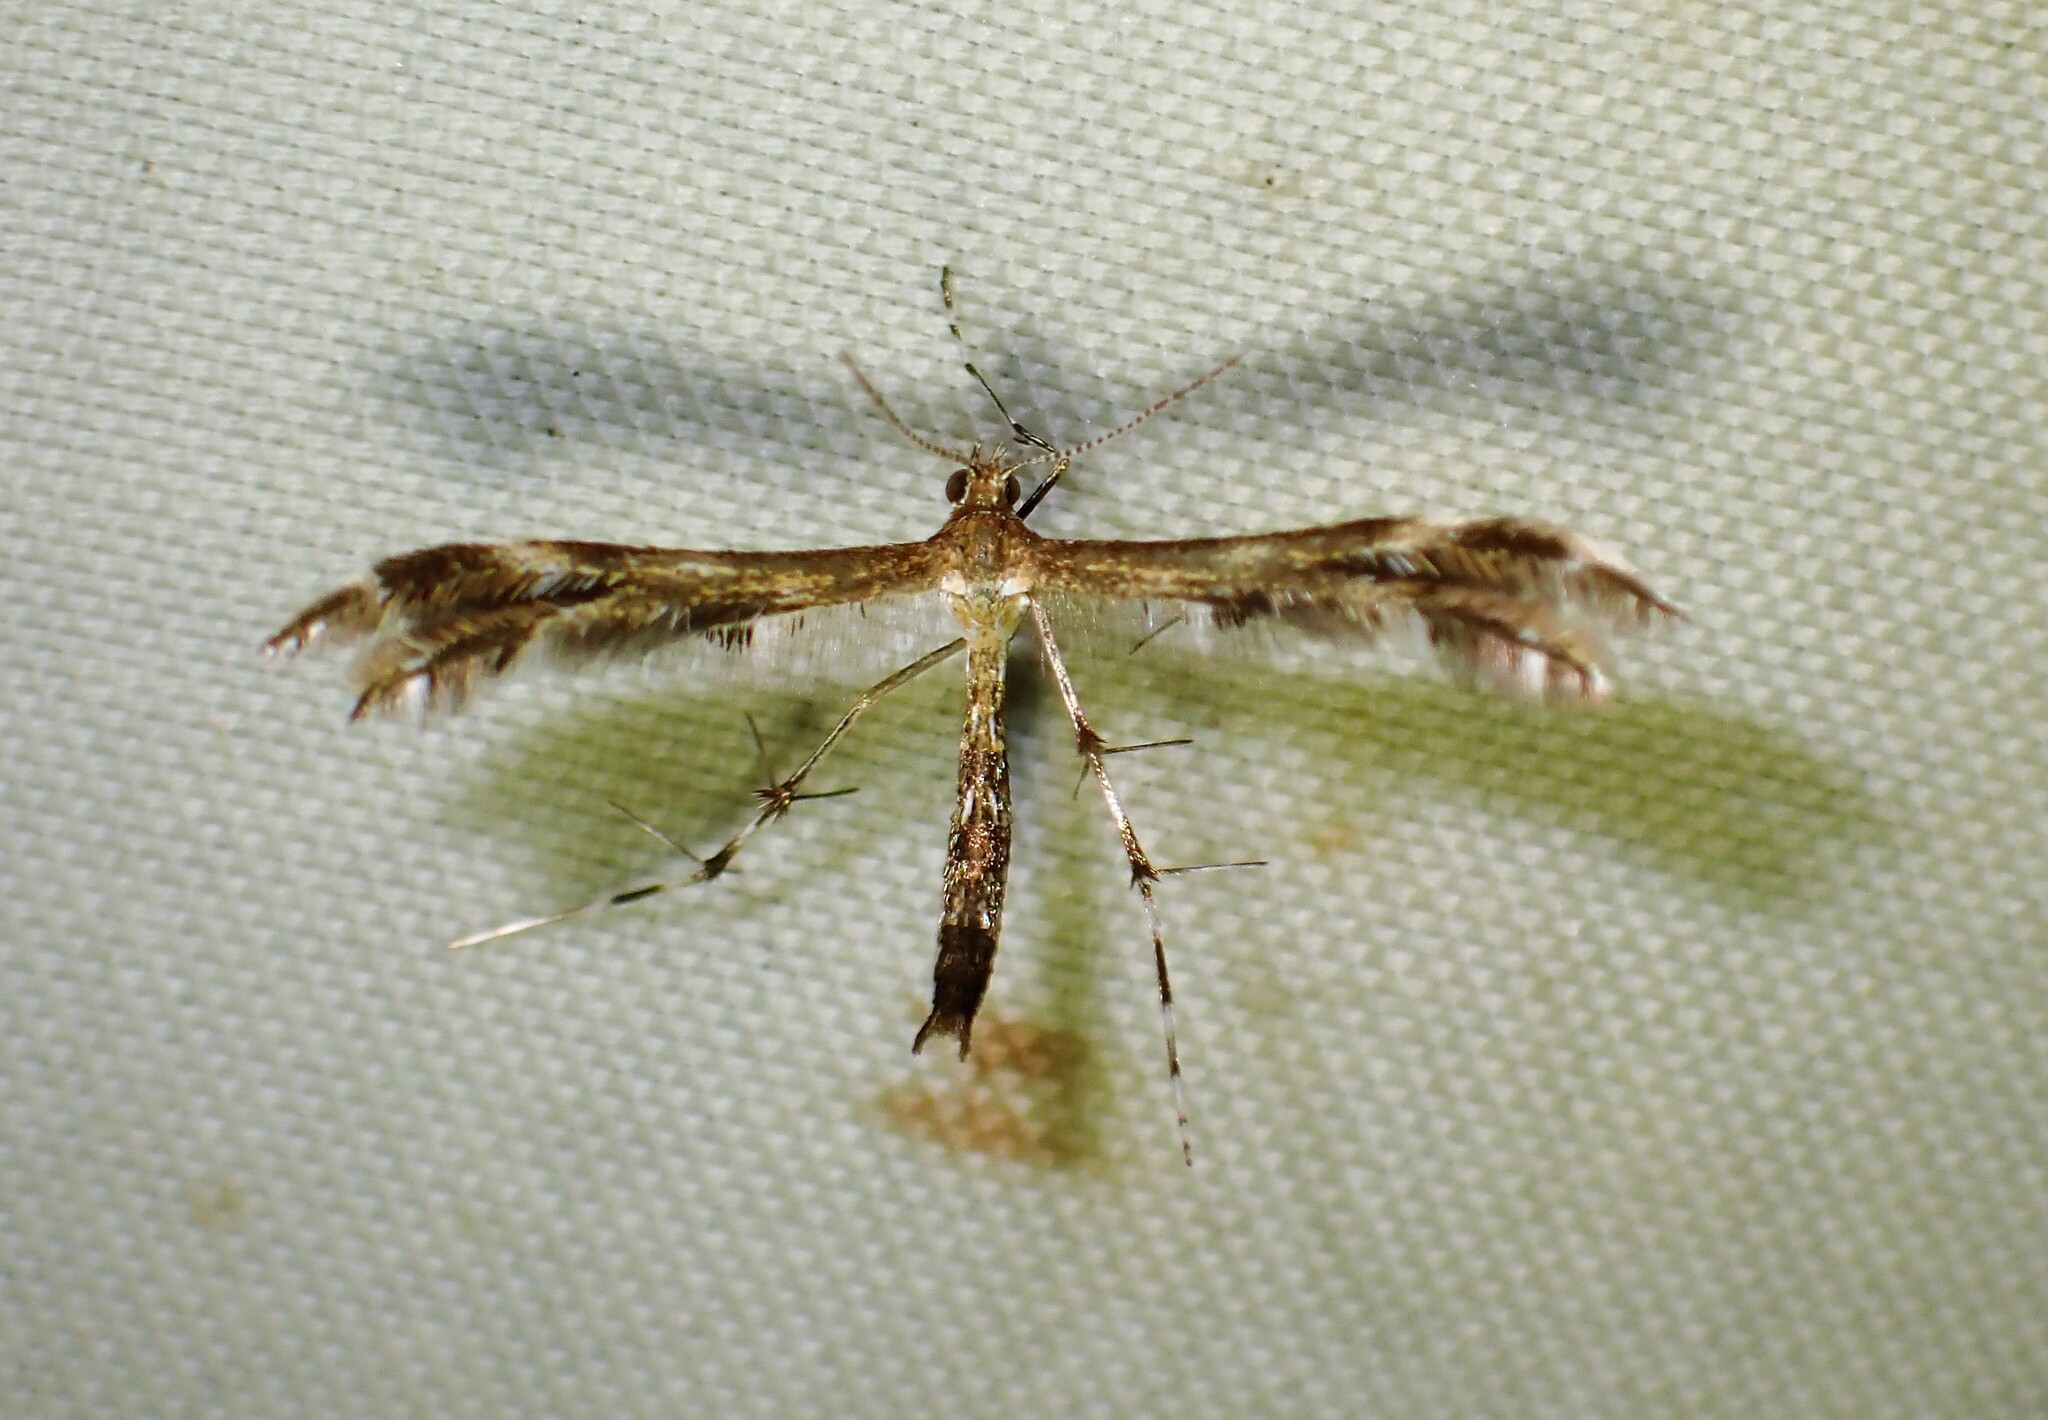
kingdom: Animalia
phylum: Arthropoda
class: Insecta
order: Lepidoptera
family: Pterophoridae
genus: Dejongia
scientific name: Dejongia lobidactylus
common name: Lobed plume moth
